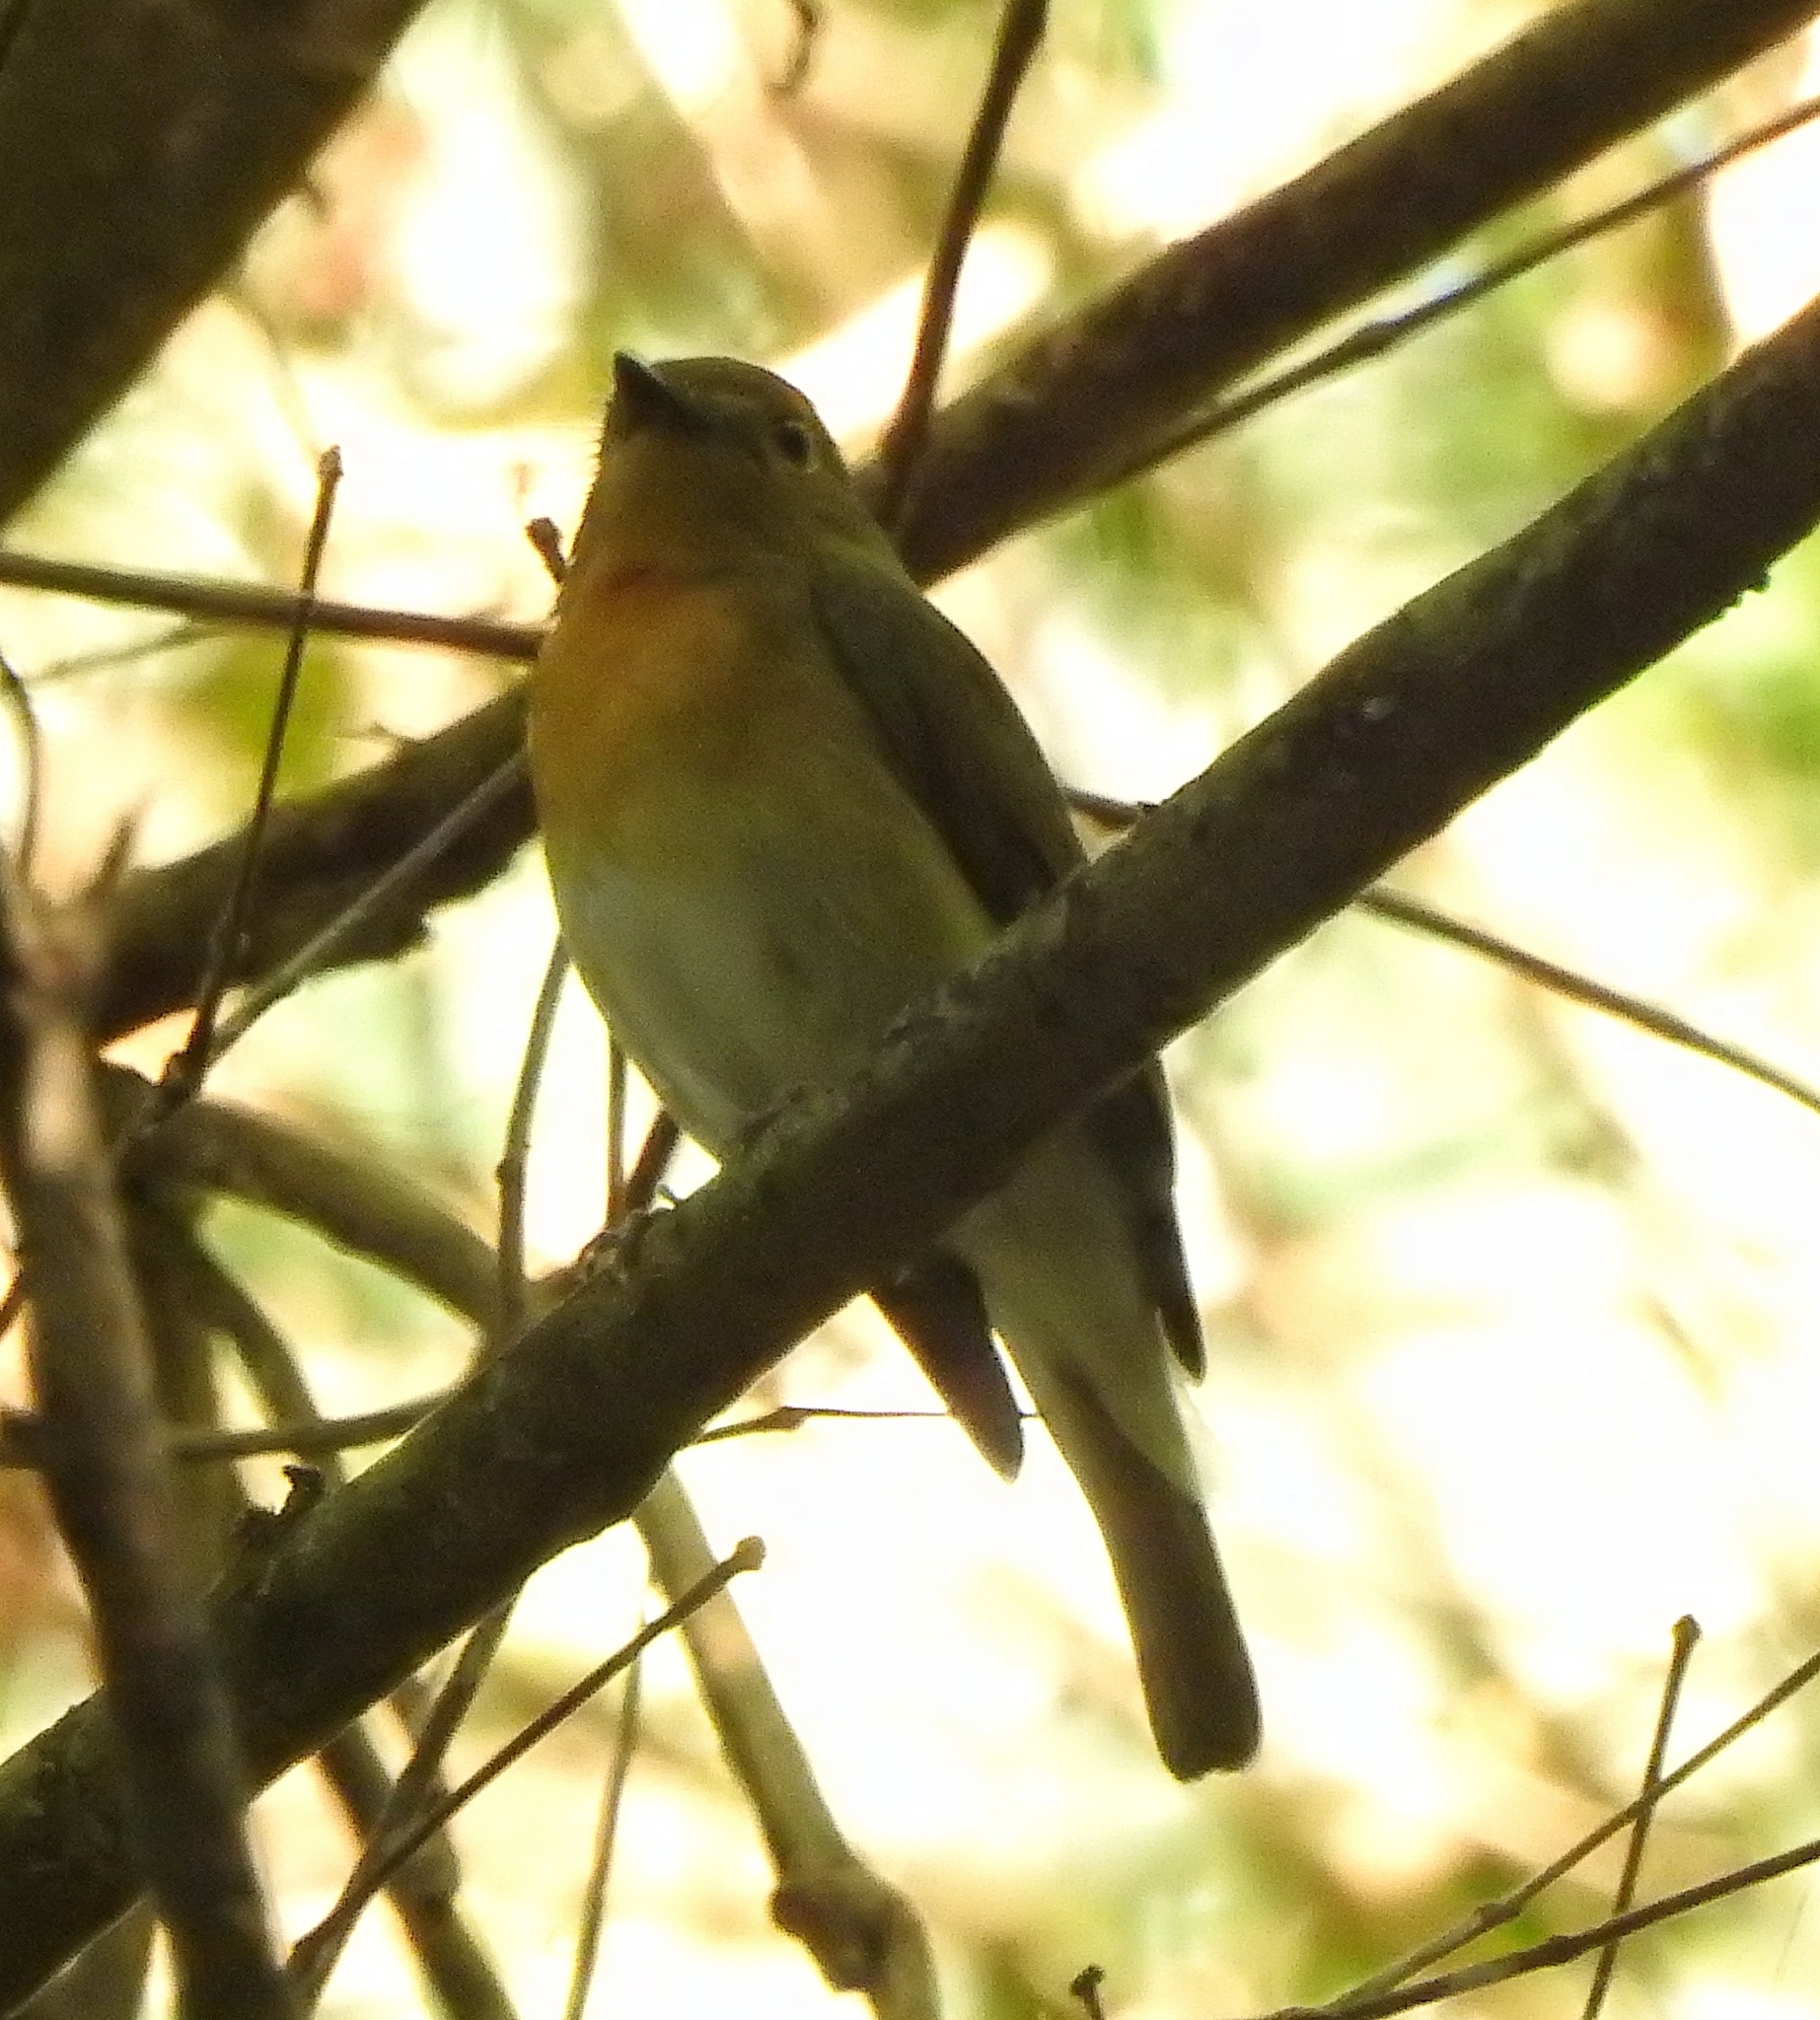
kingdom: Animalia
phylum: Chordata
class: Aves
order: Passeriformes
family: Muscicapidae
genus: Cyornis
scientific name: Cyornis rubeculoides
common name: Blue-throated blue flycatcher
